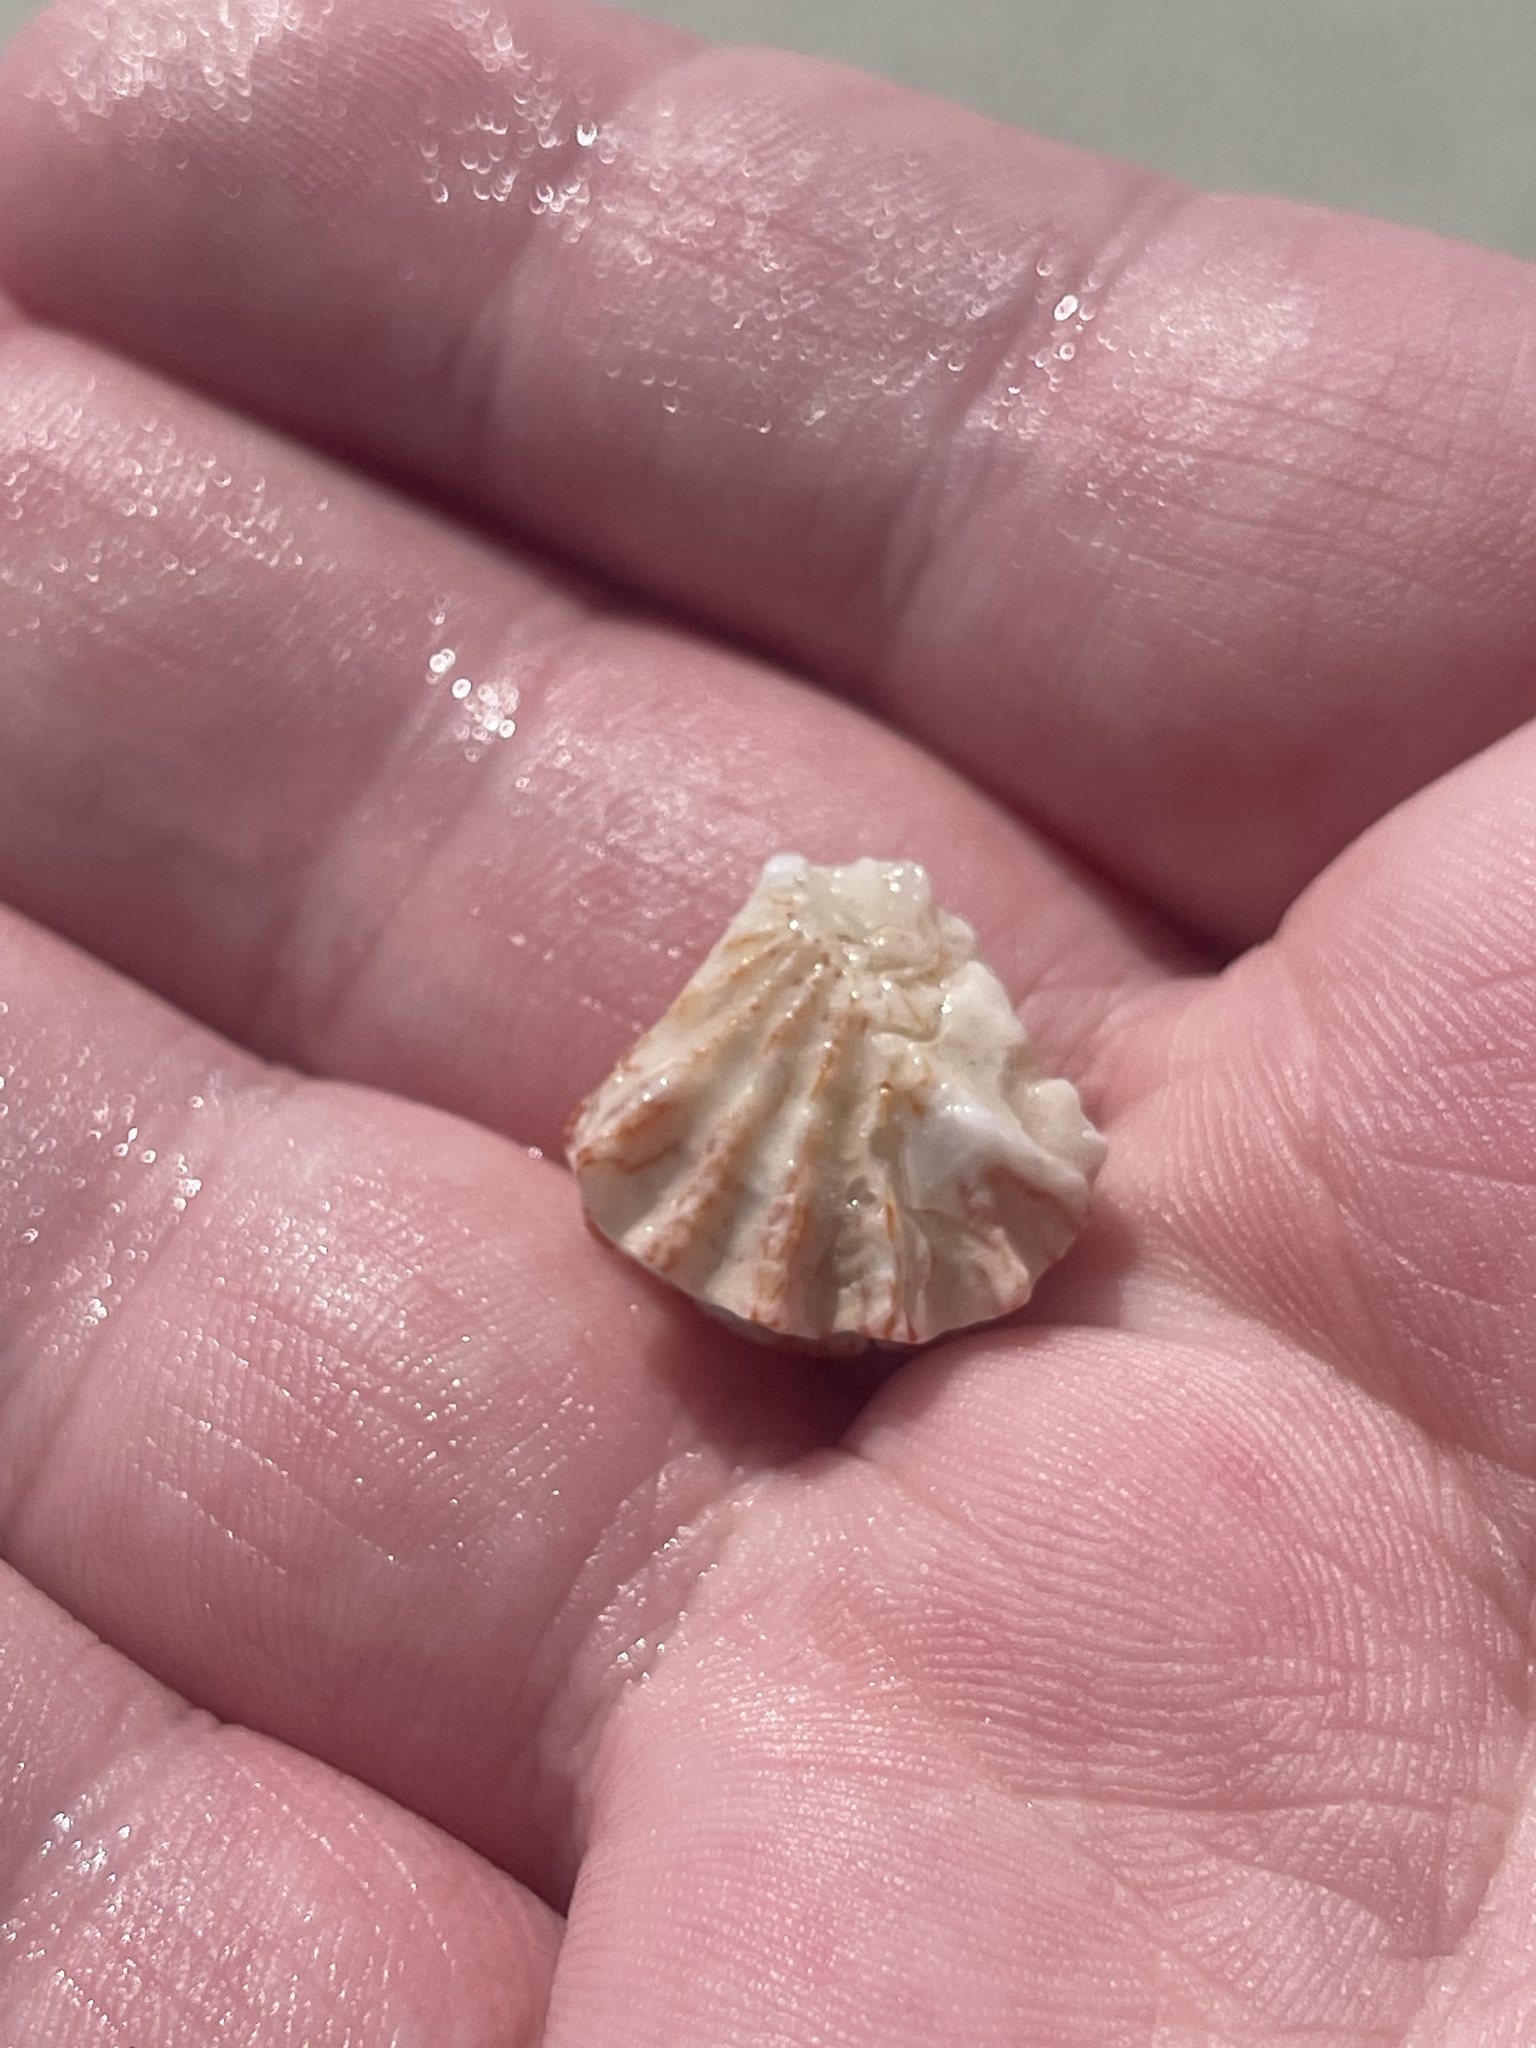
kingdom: Animalia
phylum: Mollusca
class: Bivalvia
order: Pectinida
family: Plicatulidae
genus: Plicatula
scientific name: Plicatula gibbosa
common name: Atlantic kitten's paw
